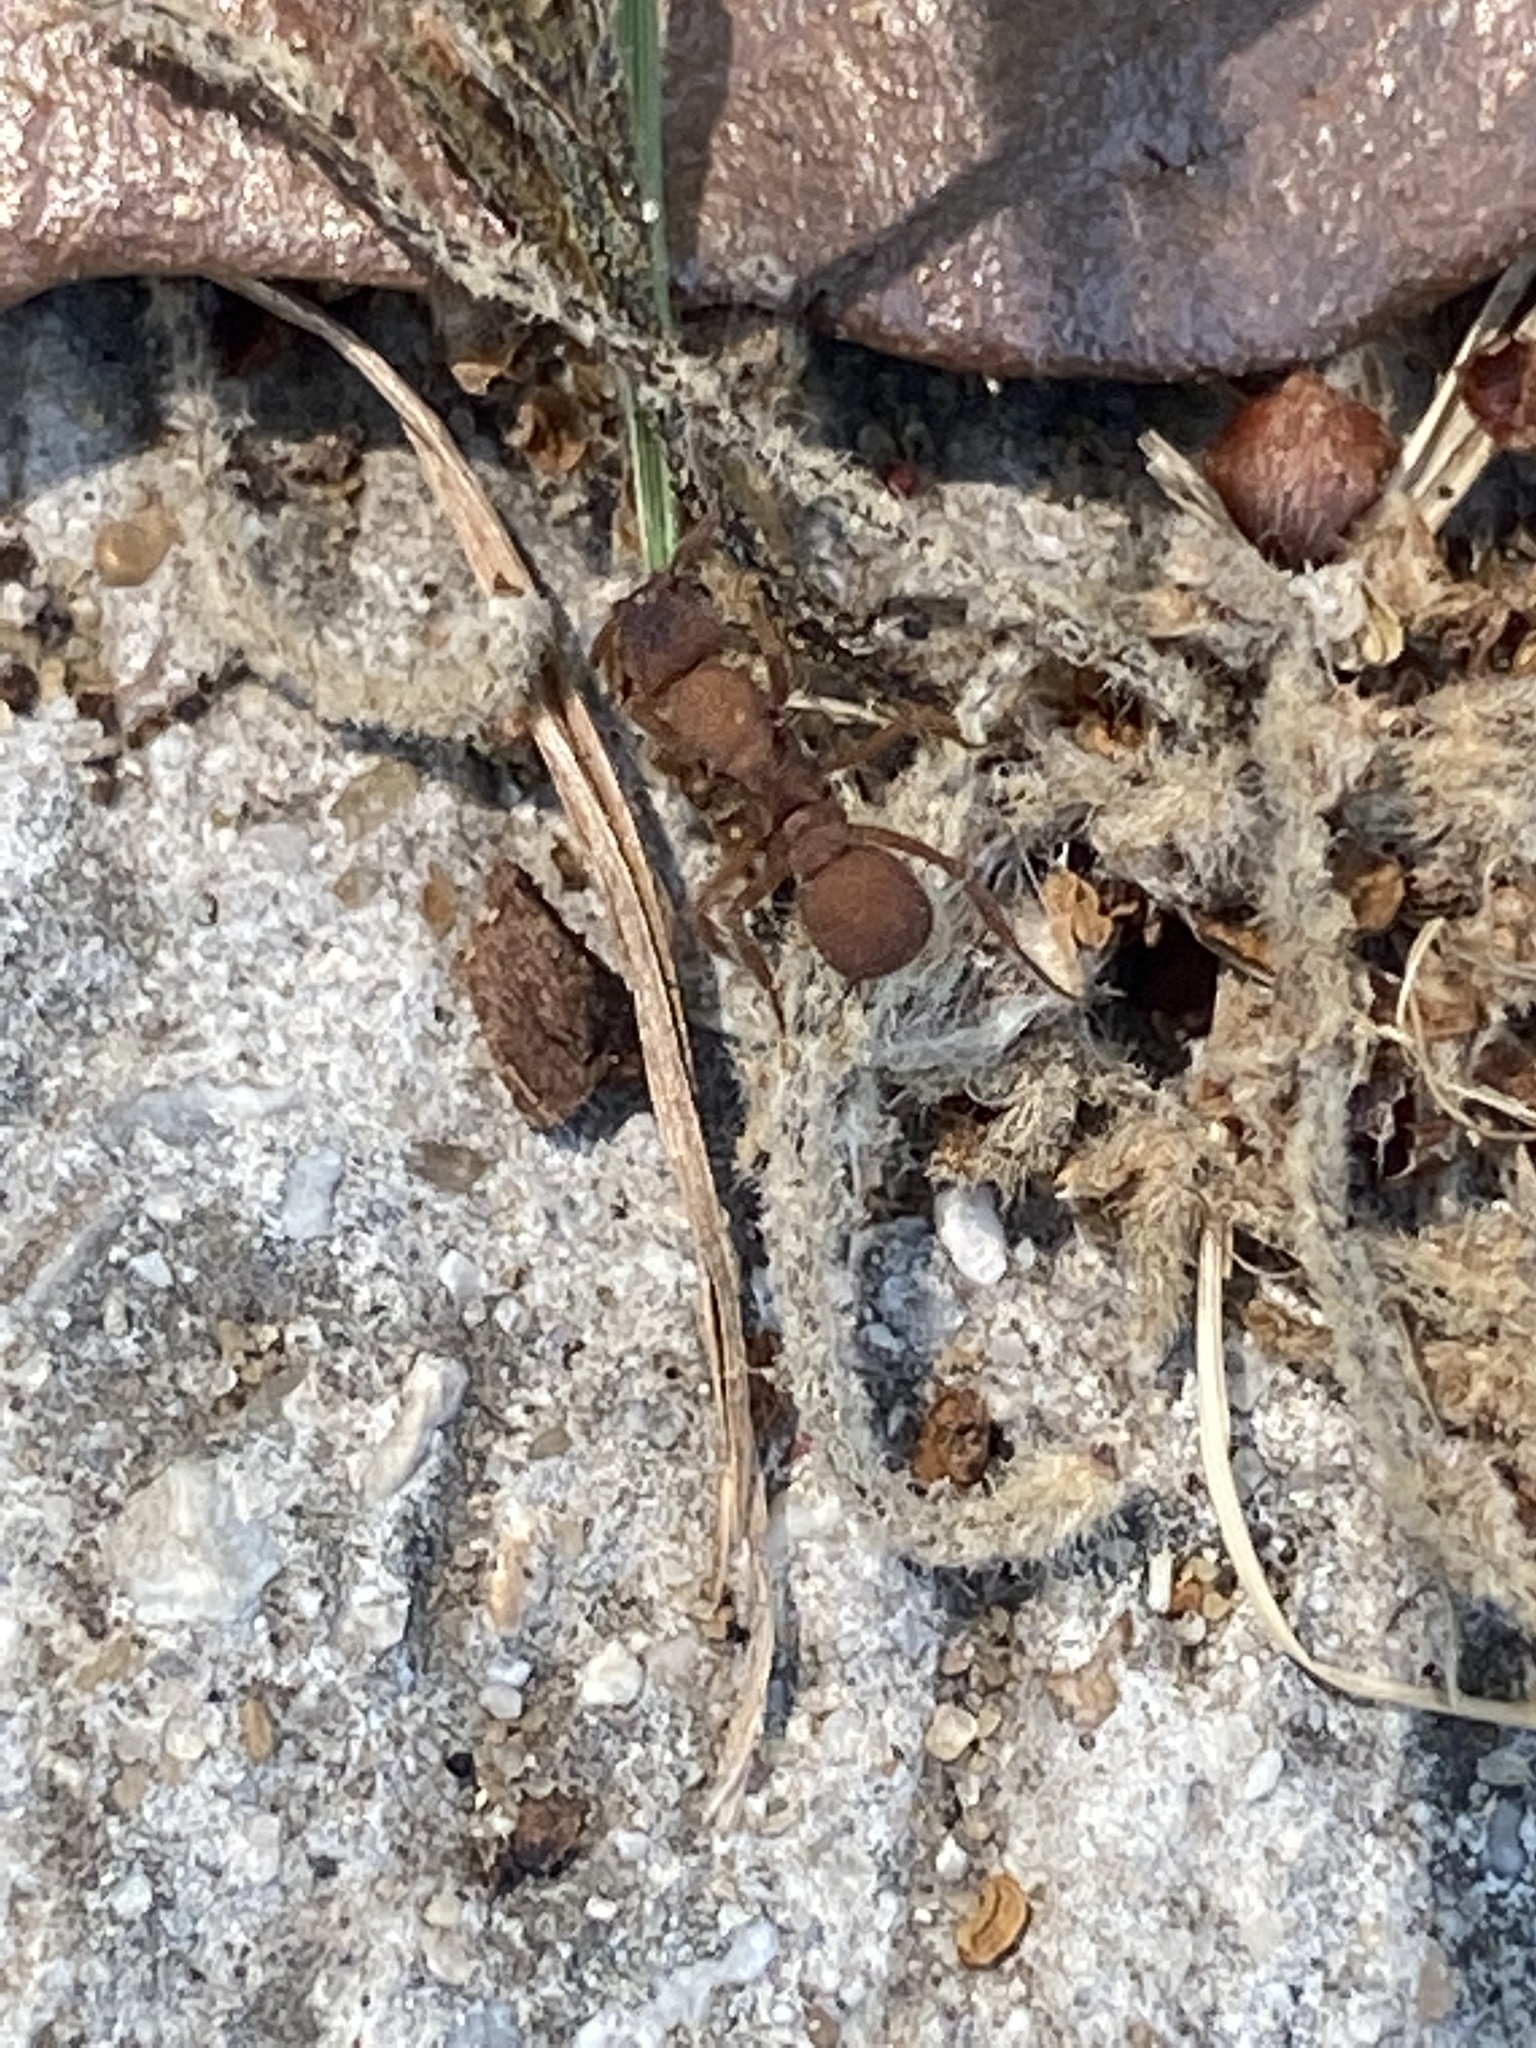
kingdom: Animalia
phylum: Arthropoda
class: Insecta
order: Hymenoptera
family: Formicidae
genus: Trachymyrmex
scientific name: Trachymyrmex septentrionalis
